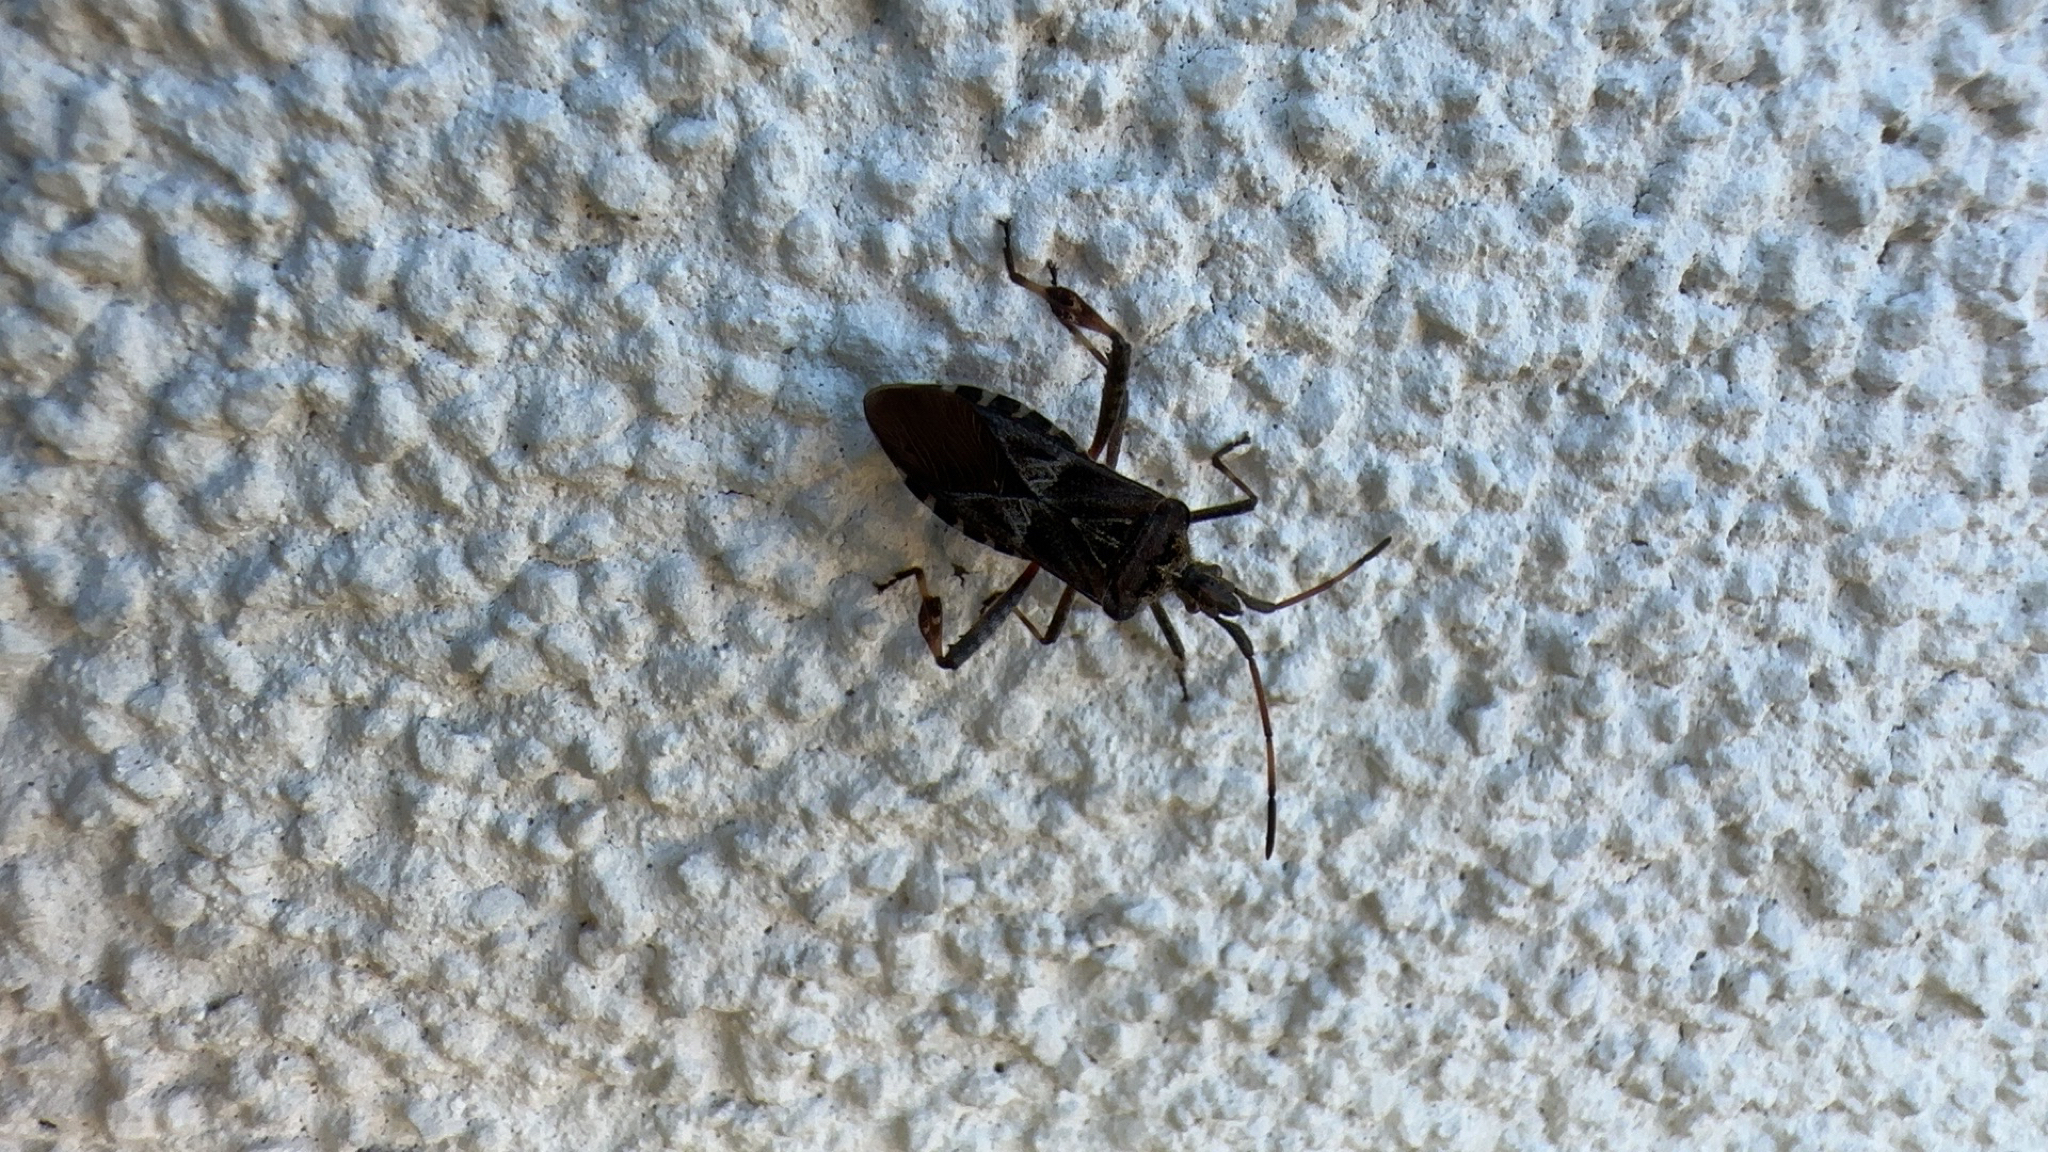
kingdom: Animalia
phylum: Arthropoda
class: Insecta
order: Hemiptera
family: Coreidae
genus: Leptoglossus
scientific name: Leptoglossus occidentalis
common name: Western conifer-seed bug
